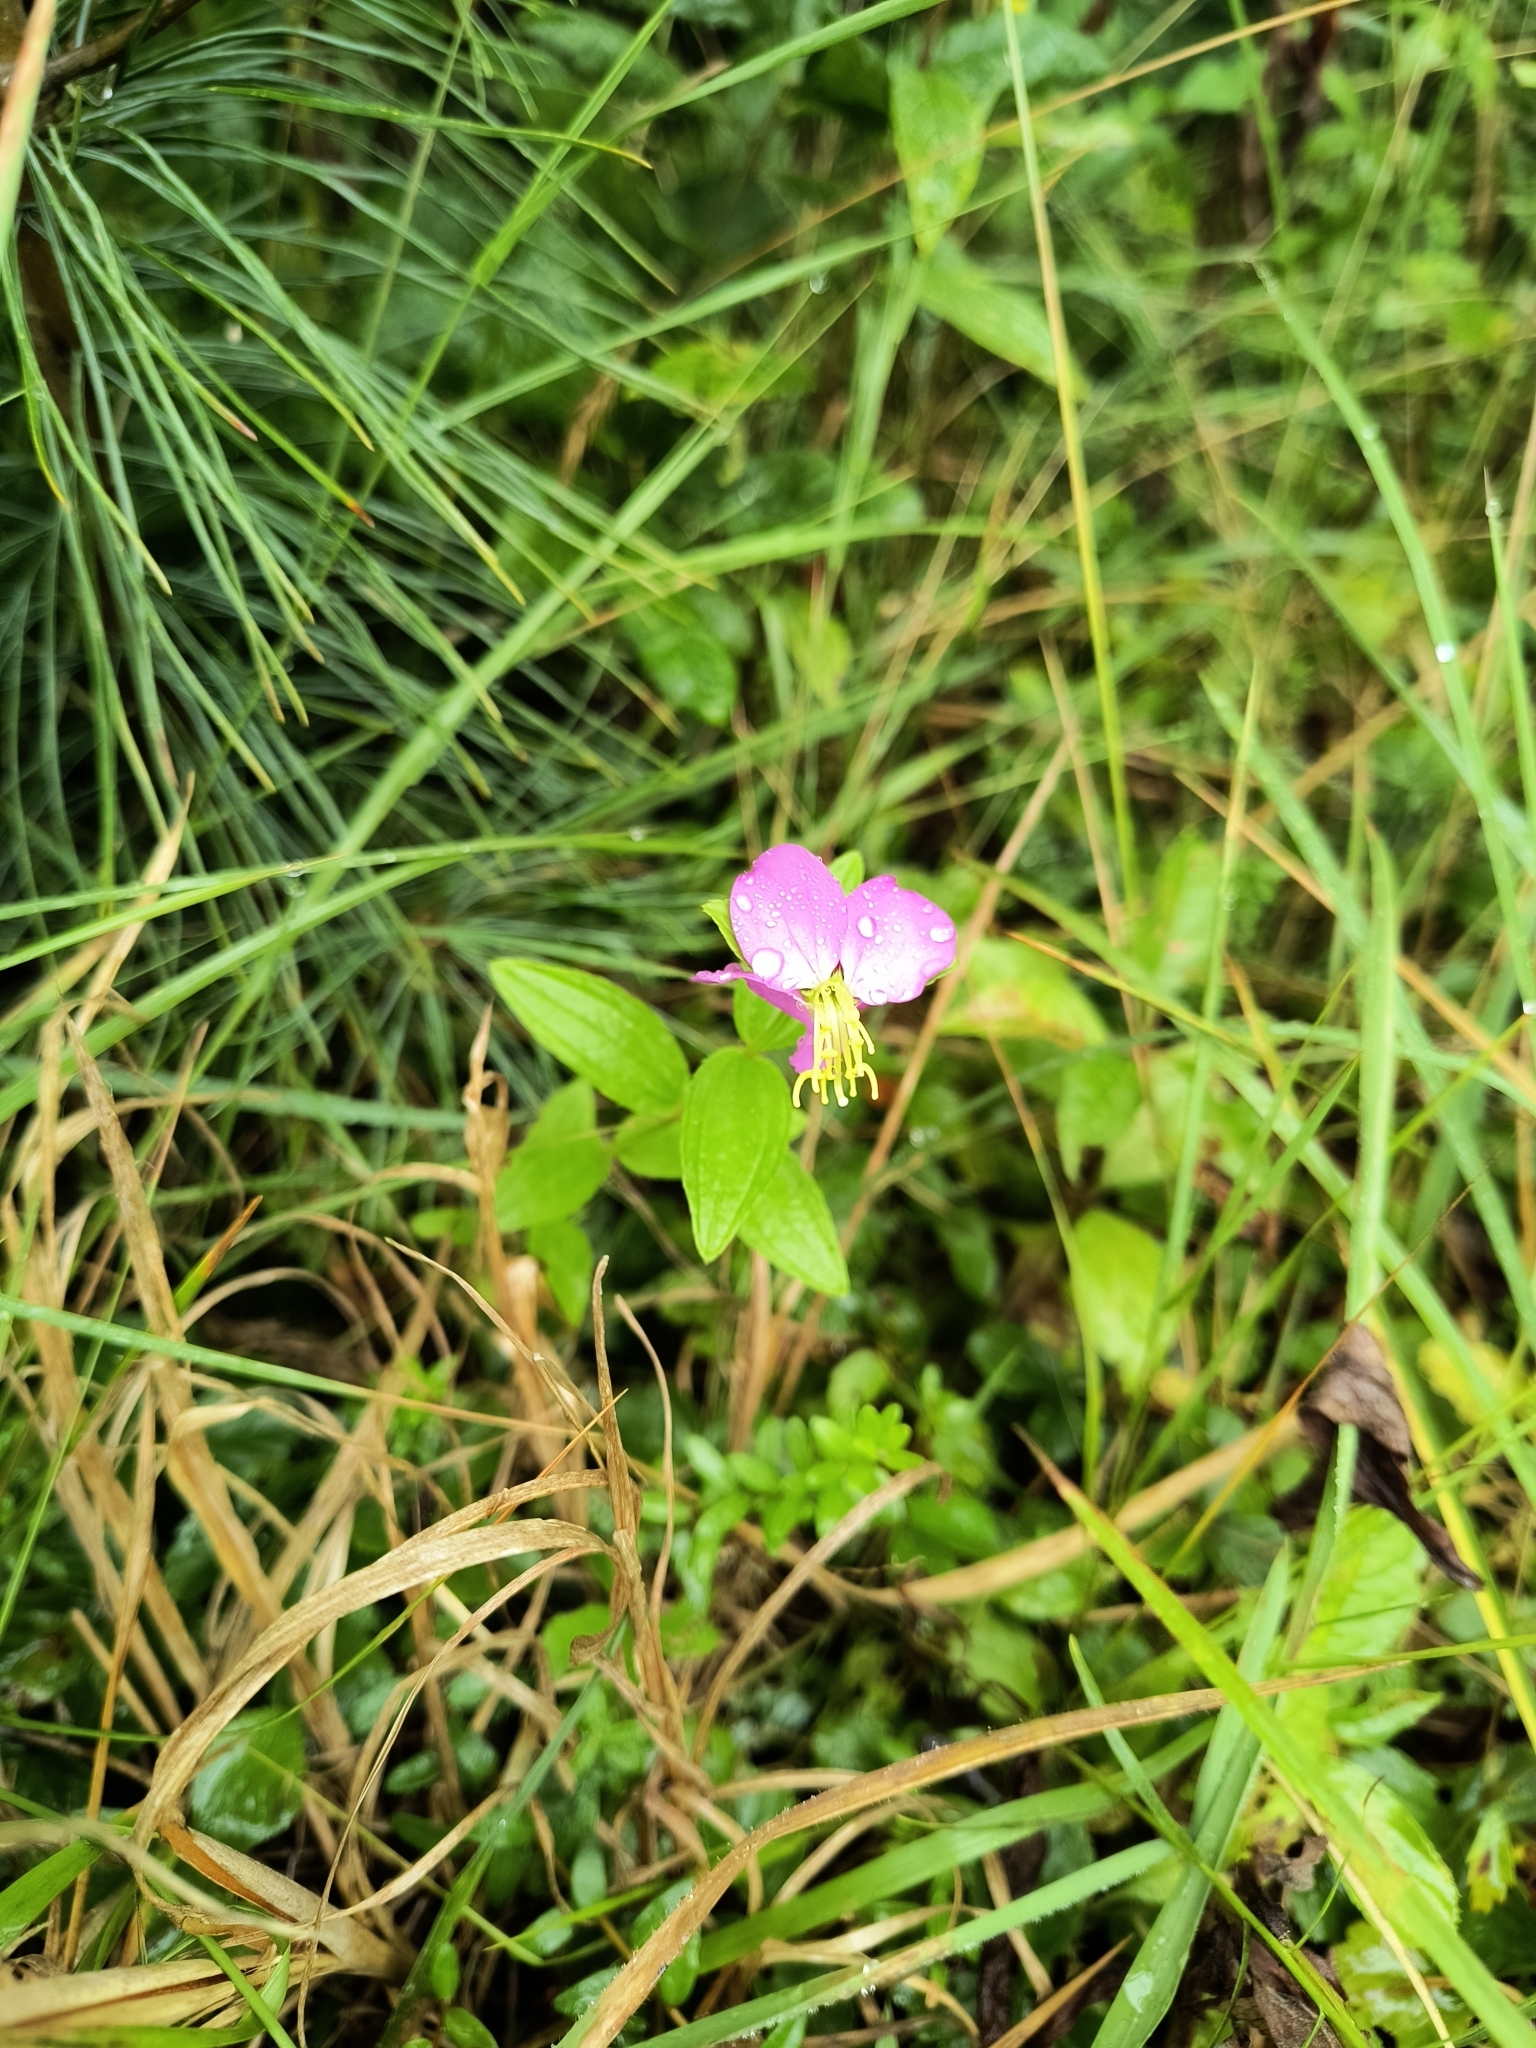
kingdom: Plantae
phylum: Tracheophyta
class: Magnoliopsida
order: Myrtales
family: Melastomataceae
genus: Rhexia
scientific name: Rhexia virginica
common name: Common meadow beauty
